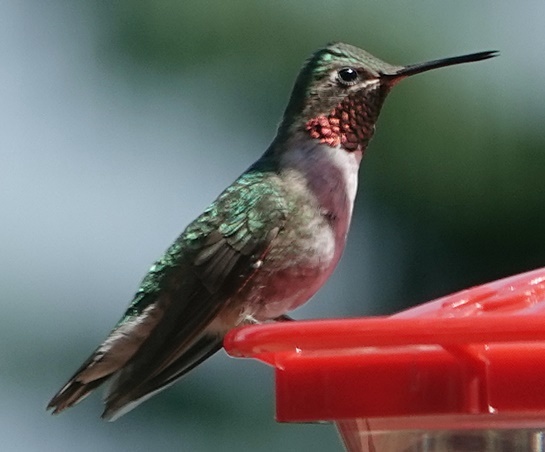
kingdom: Animalia
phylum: Chordata
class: Aves
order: Apodiformes
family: Trochilidae
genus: Selasphorus
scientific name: Selasphorus platycercus
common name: Broad-tailed hummingbird
